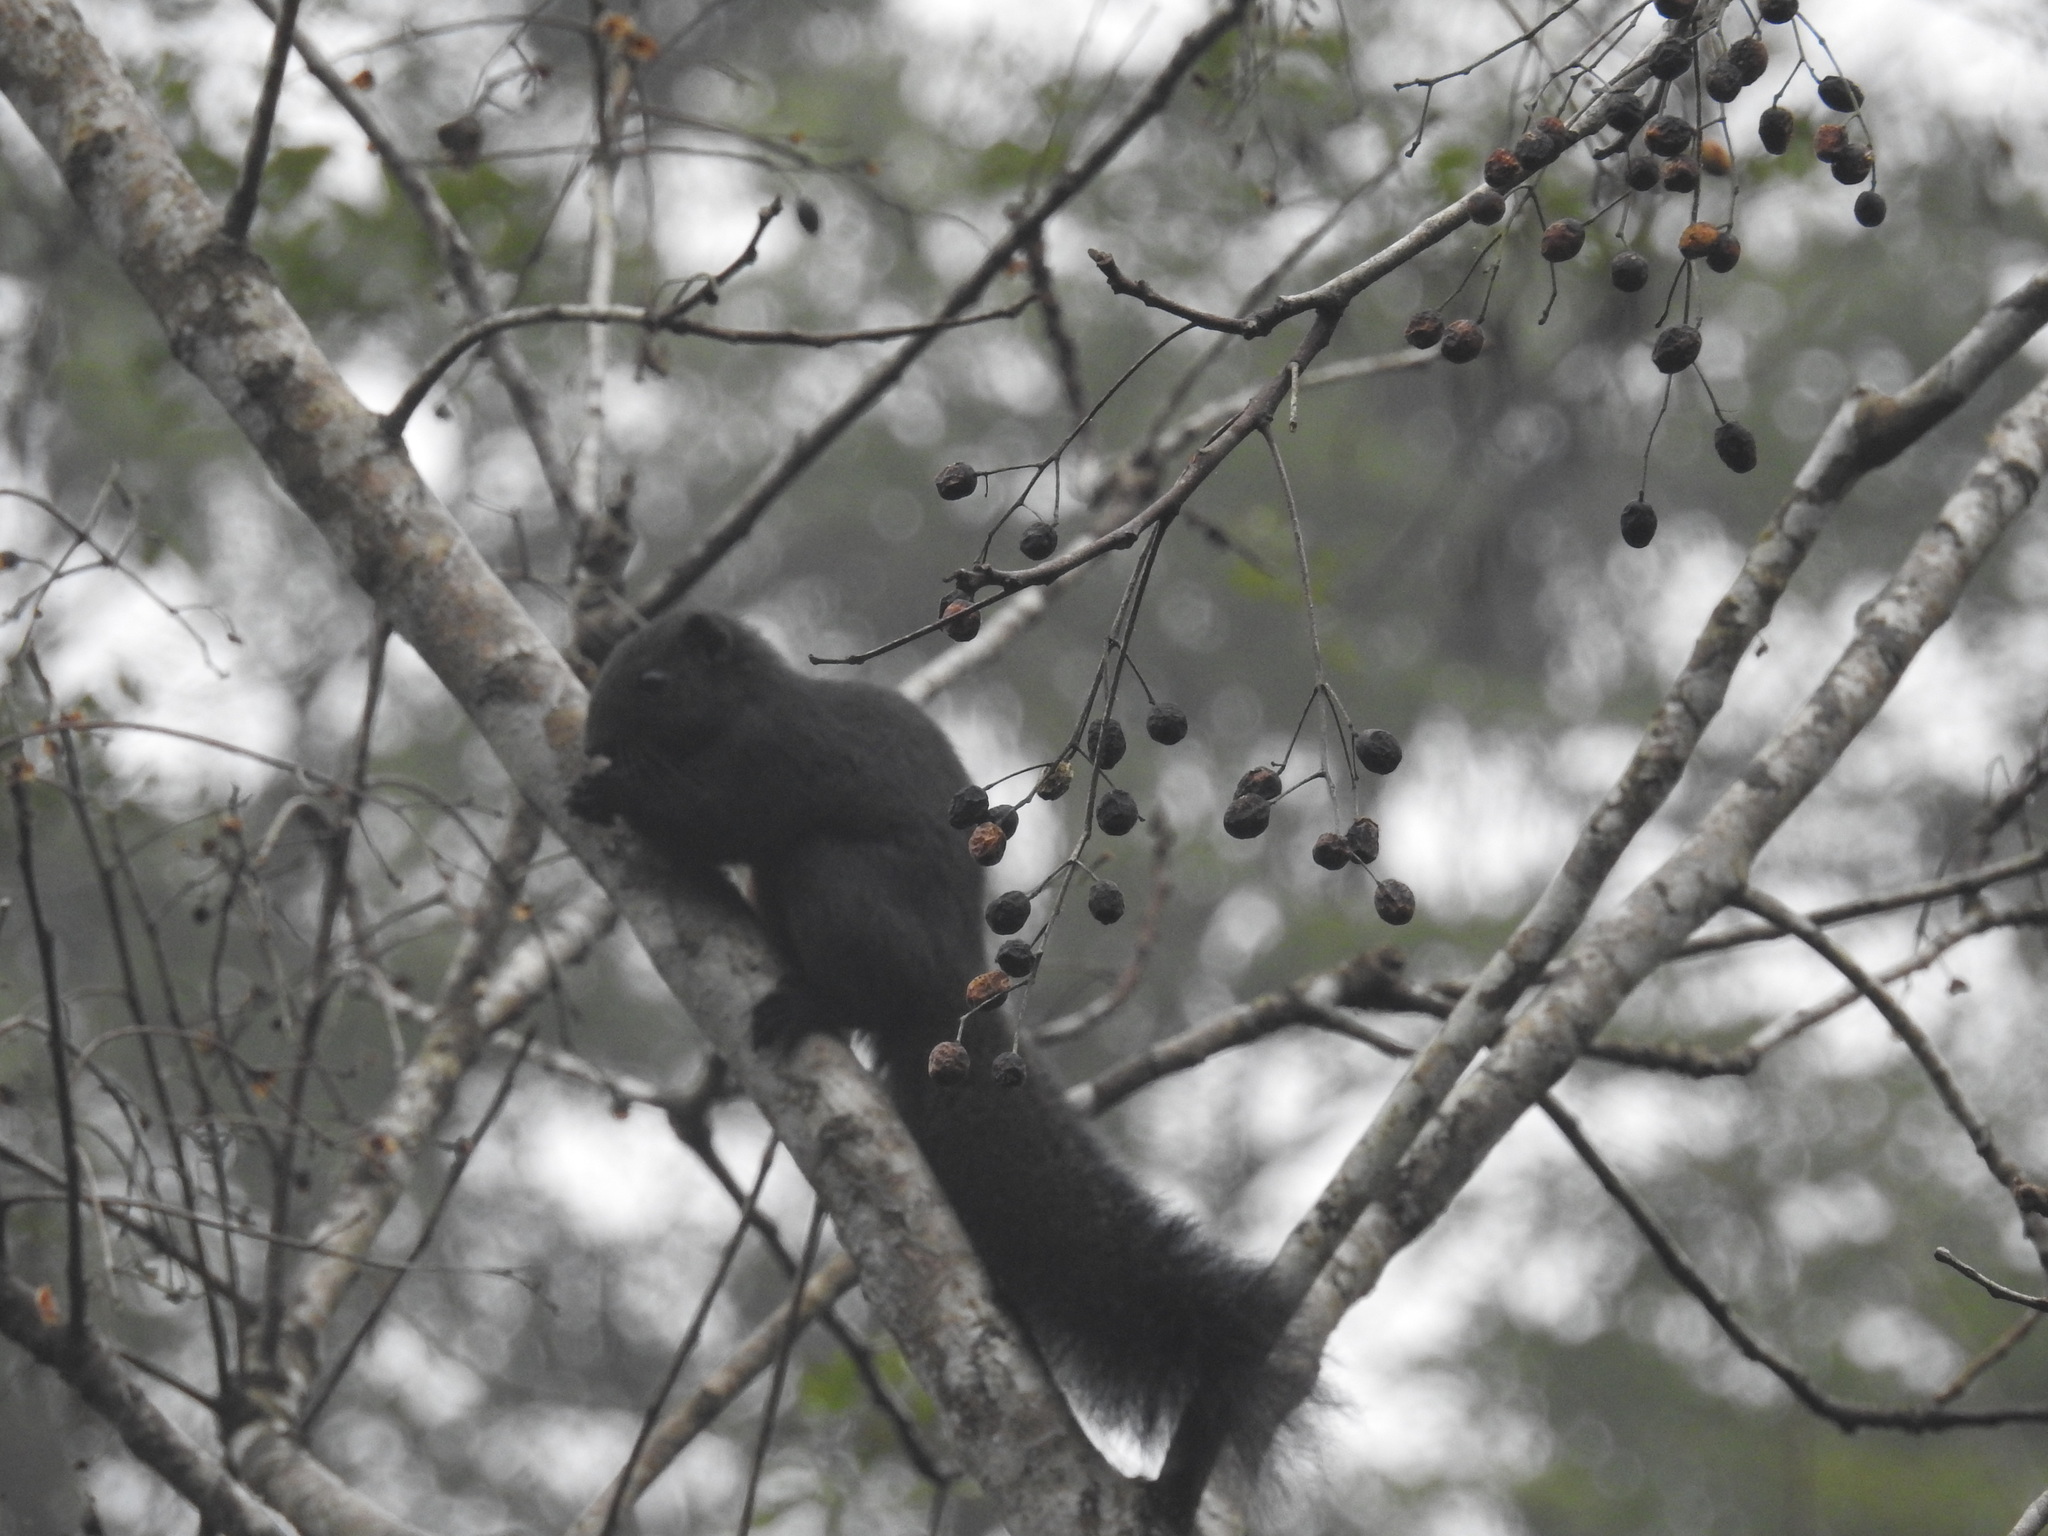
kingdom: Animalia
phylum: Chordata
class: Mammalia
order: Rodentia
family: Sciuridae
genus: Callosciurus
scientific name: Callosciurus erythraeus
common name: Pallas's squirrel
